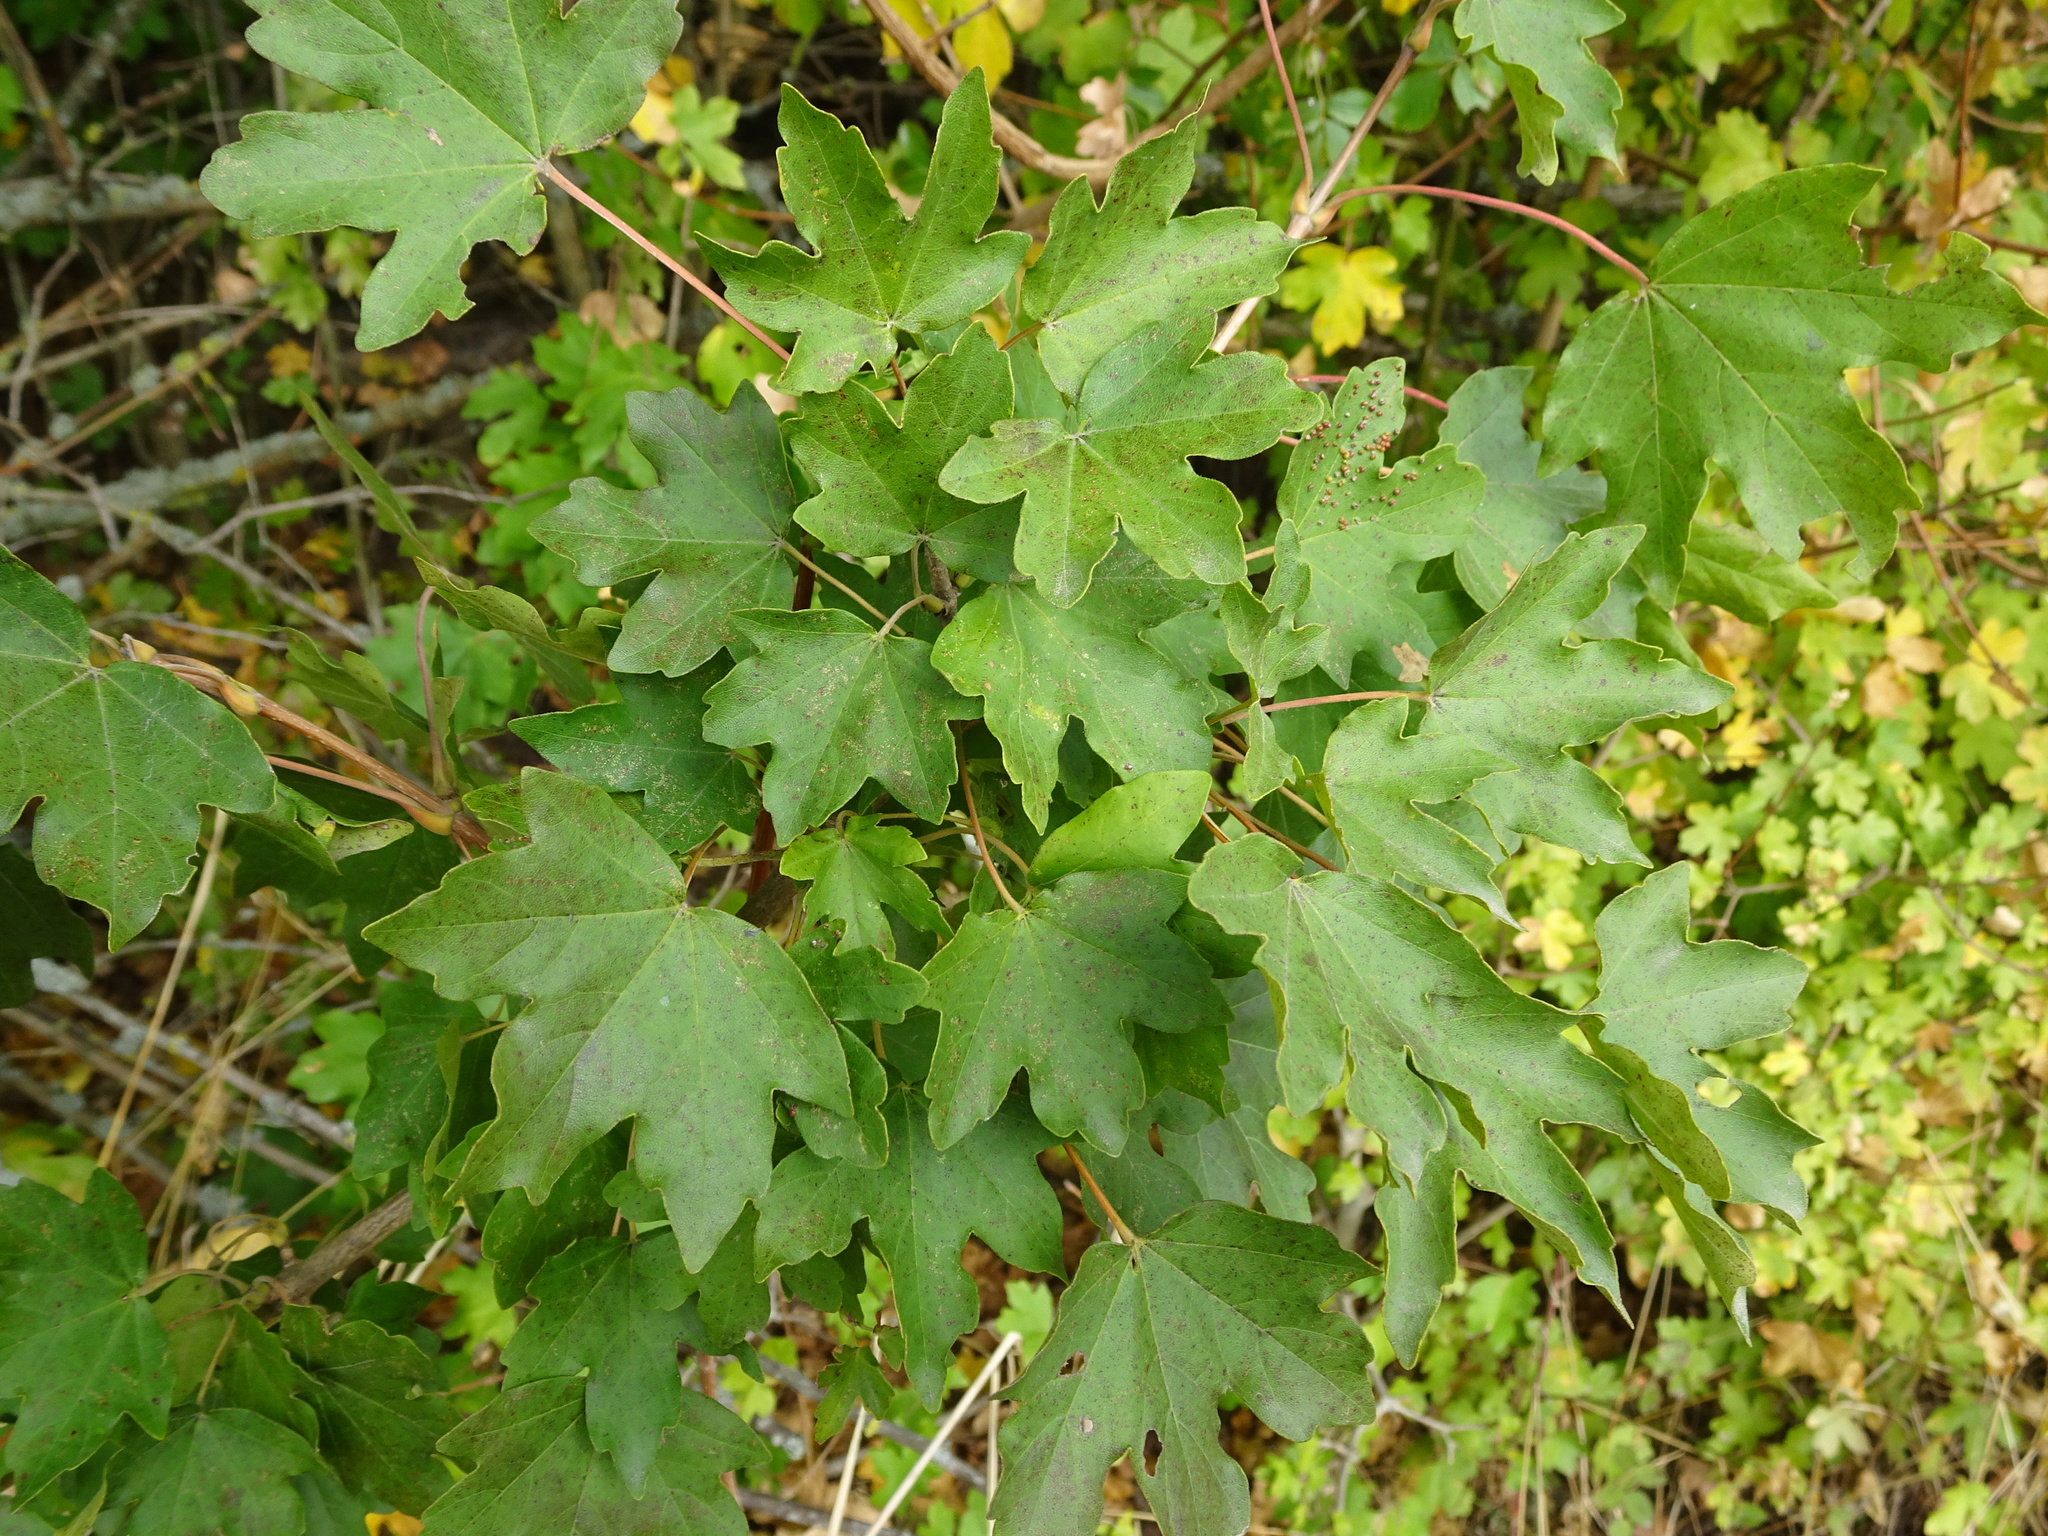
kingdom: Plantae
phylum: Tracheophyta
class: Magnoliopsida
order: Sapindales
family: Sapindaceae
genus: Acer
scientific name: Acer campestre
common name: Field maple
